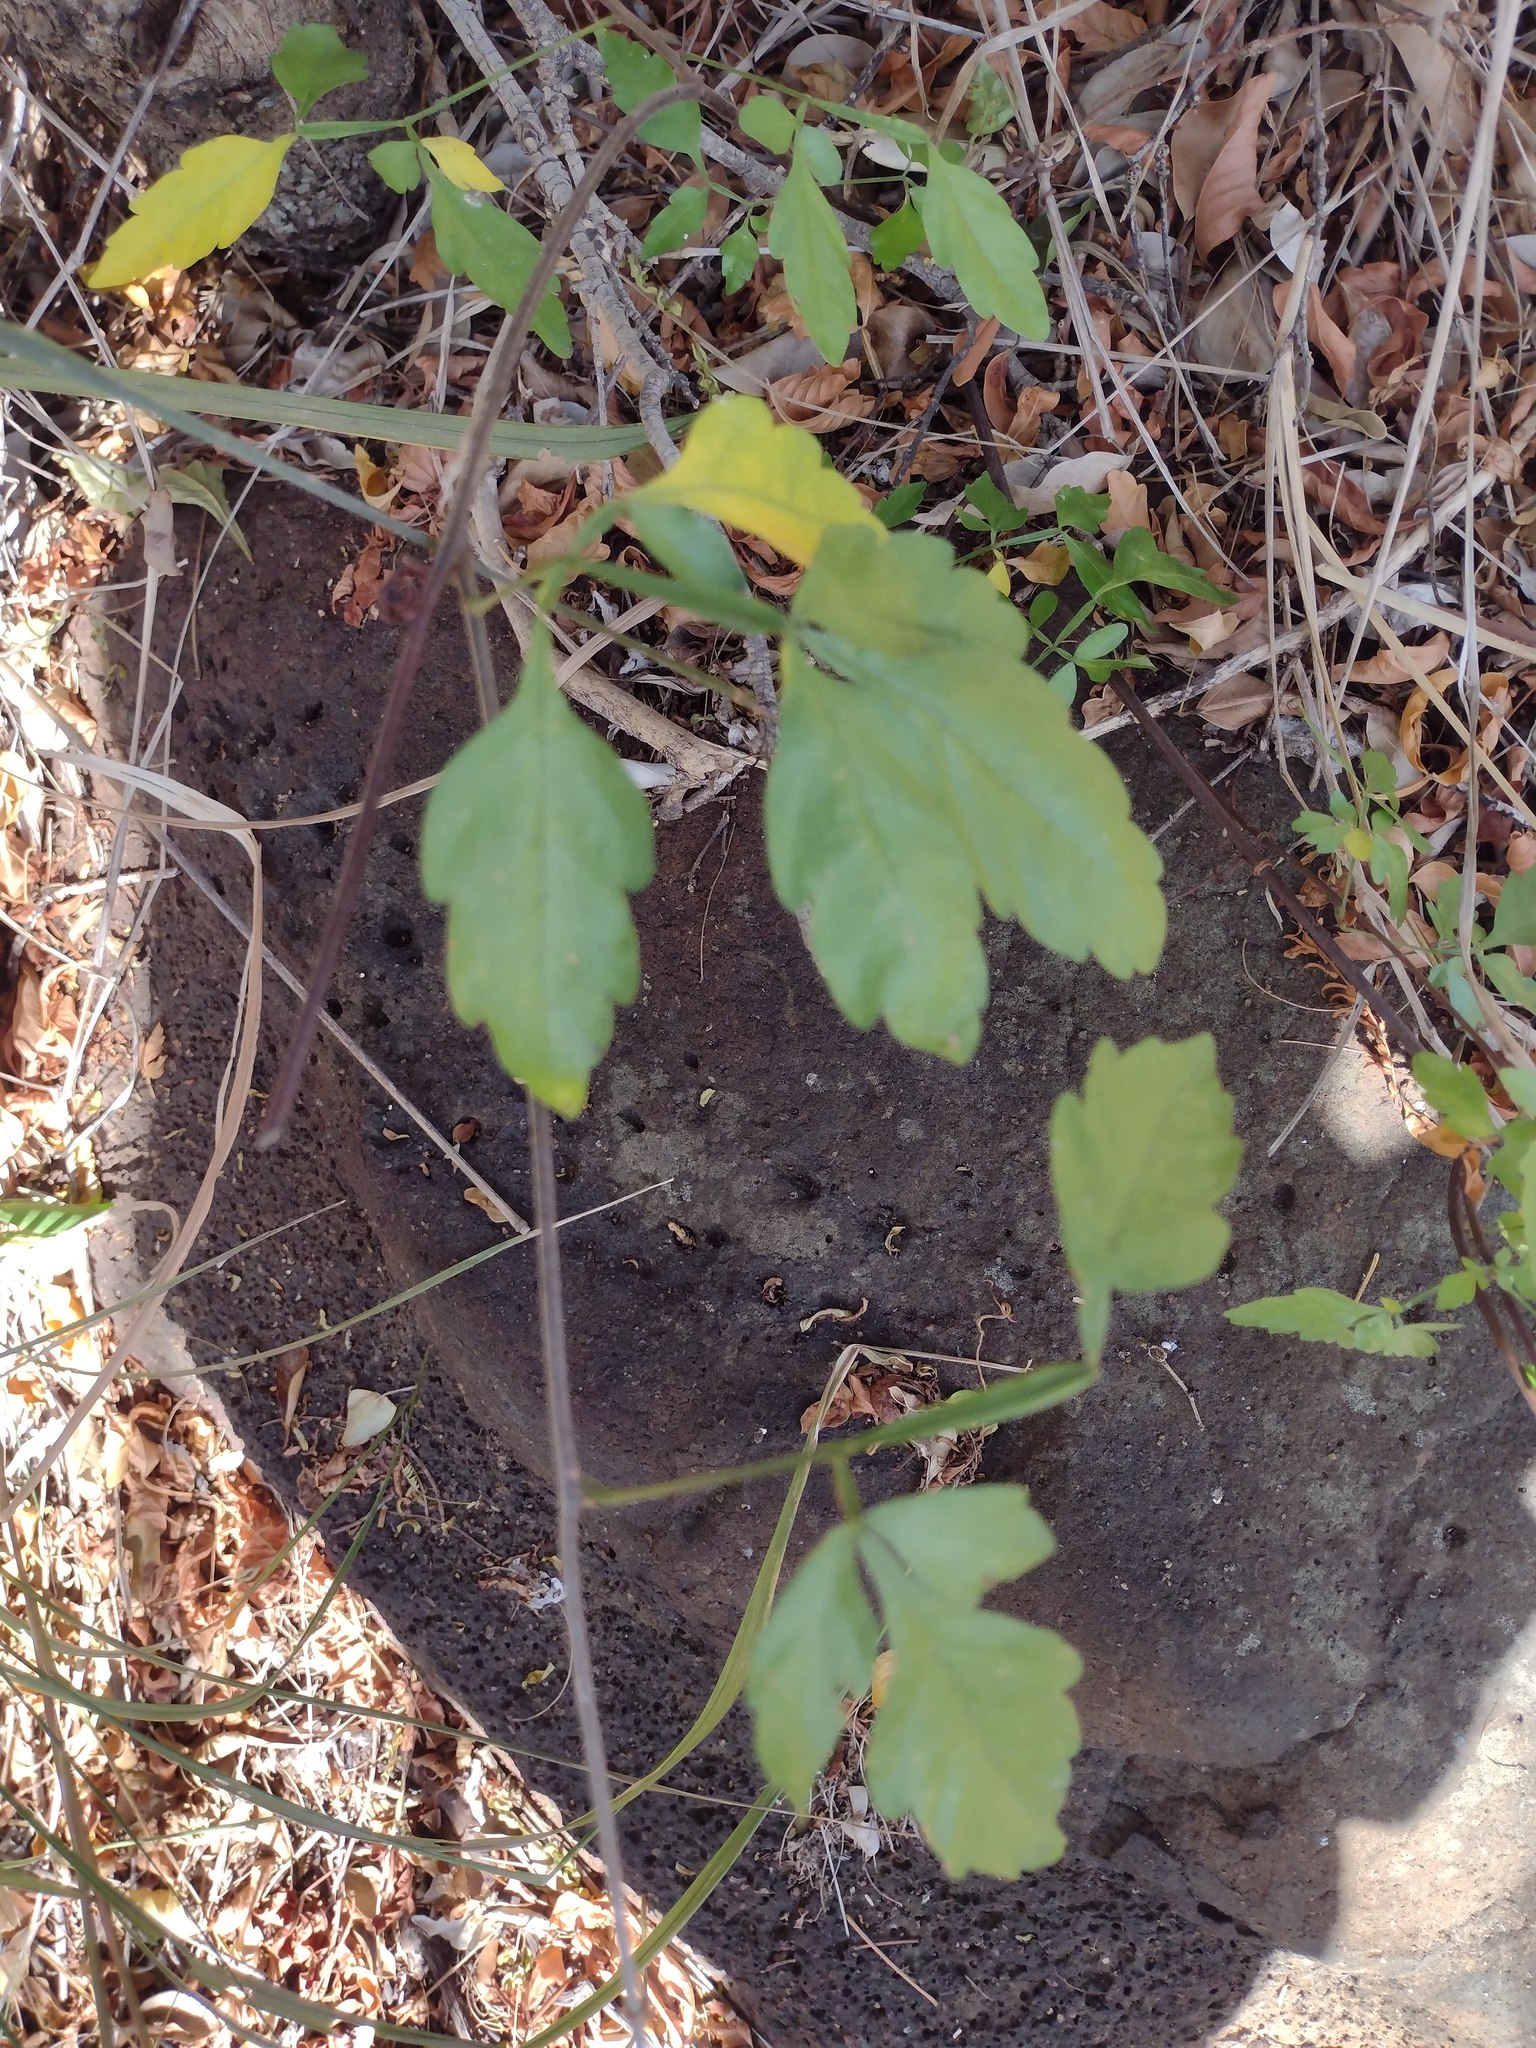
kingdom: Plantae
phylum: Tracheophyta
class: Magnoliopsida
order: Sapindales
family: Sapindaceae
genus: Paullinia
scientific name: Paullinia fuscescens
